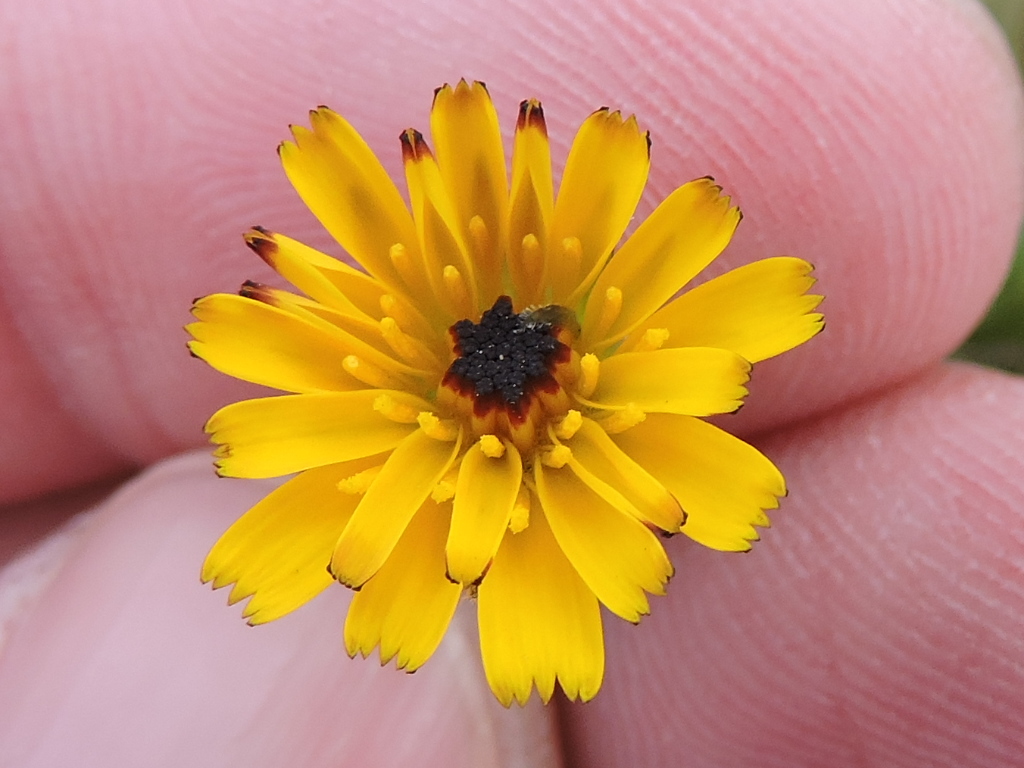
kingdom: Plantae
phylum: Tracheophyta
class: Magnoliopsida
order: Asterales
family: Asteraceae
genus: Hedypnois
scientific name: Hedypnois rhagadioloides
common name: Cretan weed
